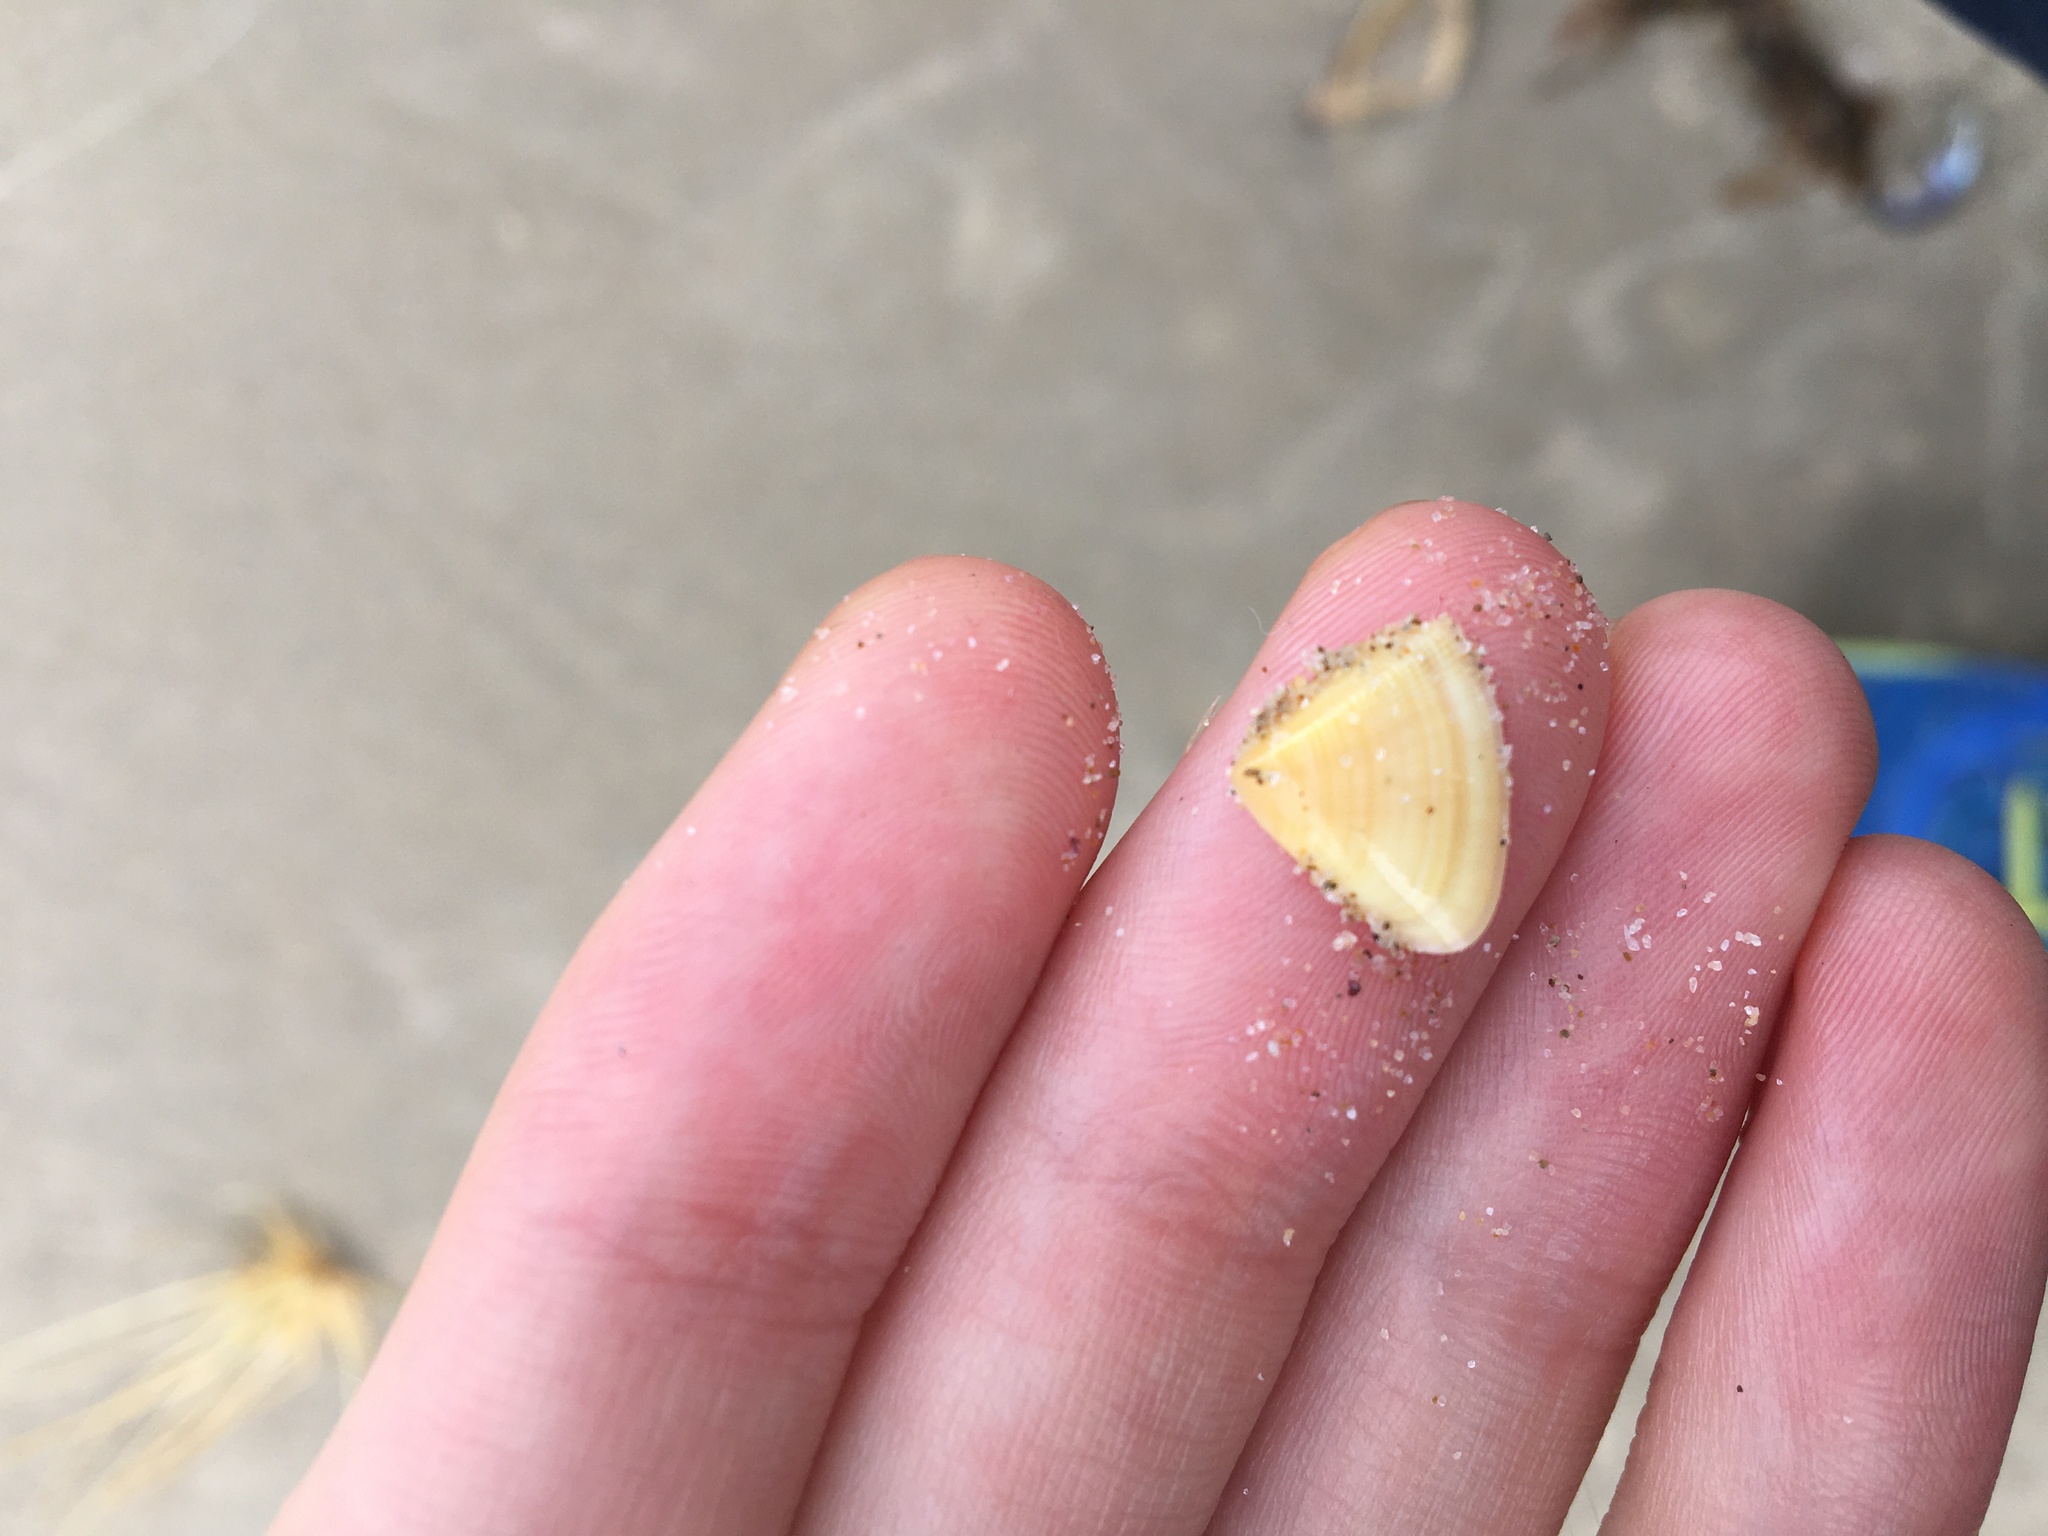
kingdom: Animalia
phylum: Mollusca
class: Bivalvia
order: Cardiida
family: Donacidae
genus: Donax
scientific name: Donax brazieri
